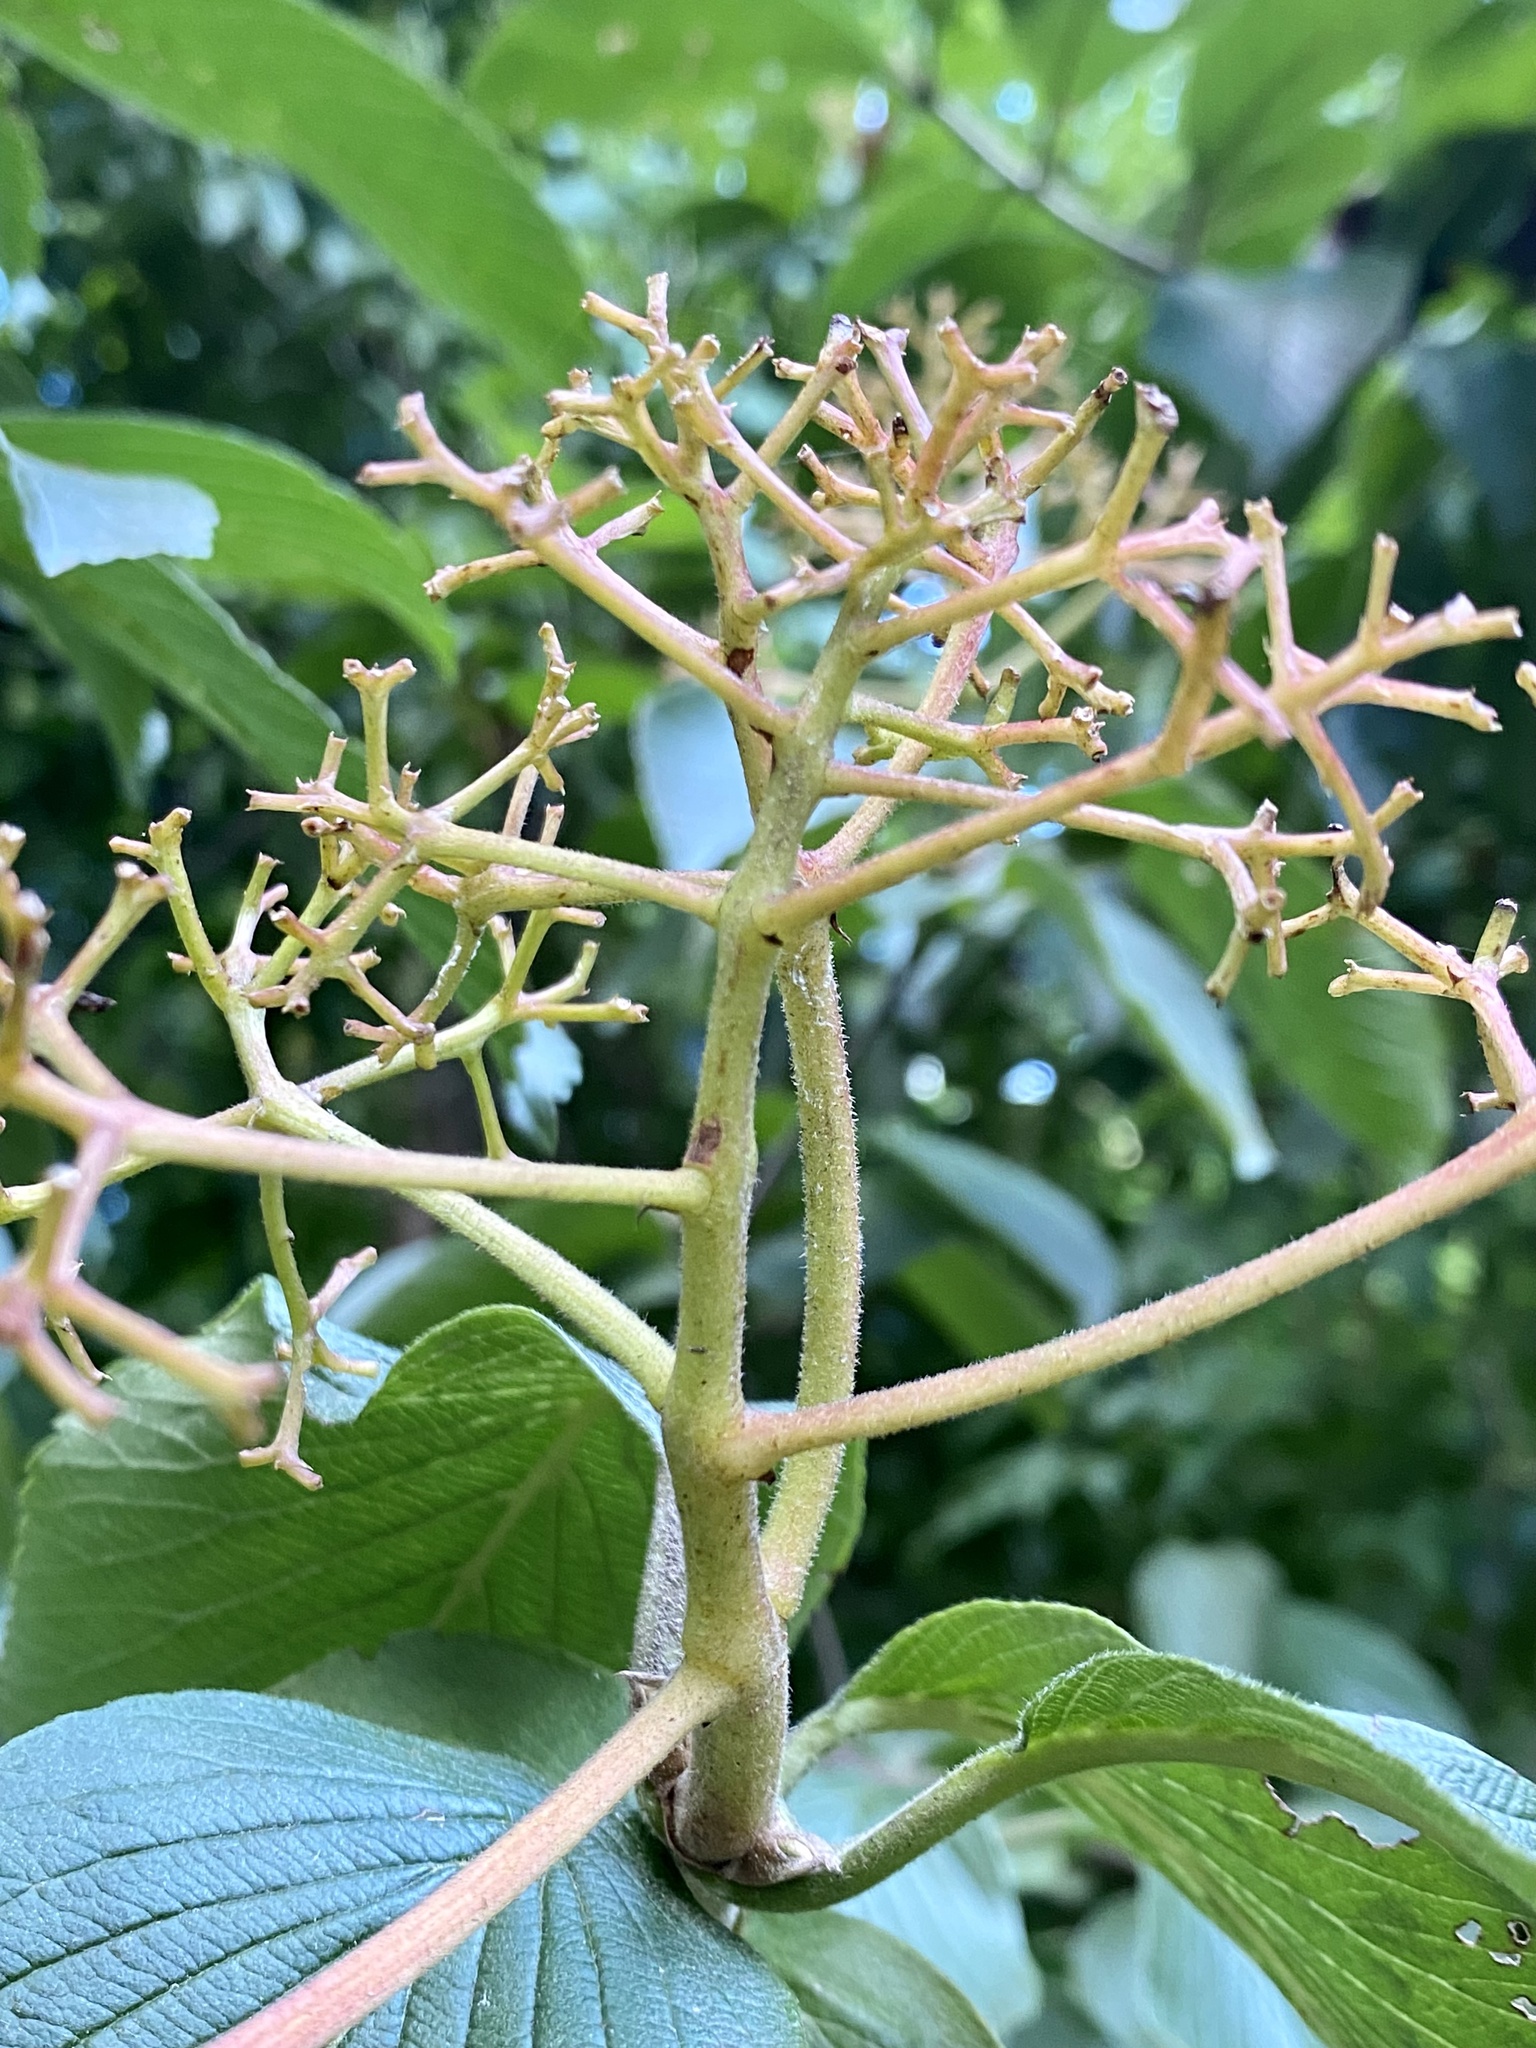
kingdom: Plantae
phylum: Tracheophyta
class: Magnoliopsida
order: Dipsacales
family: Viburnaceae
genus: Viburnum
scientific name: Viburnum sieboldii
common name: Siebold's arrowwood
